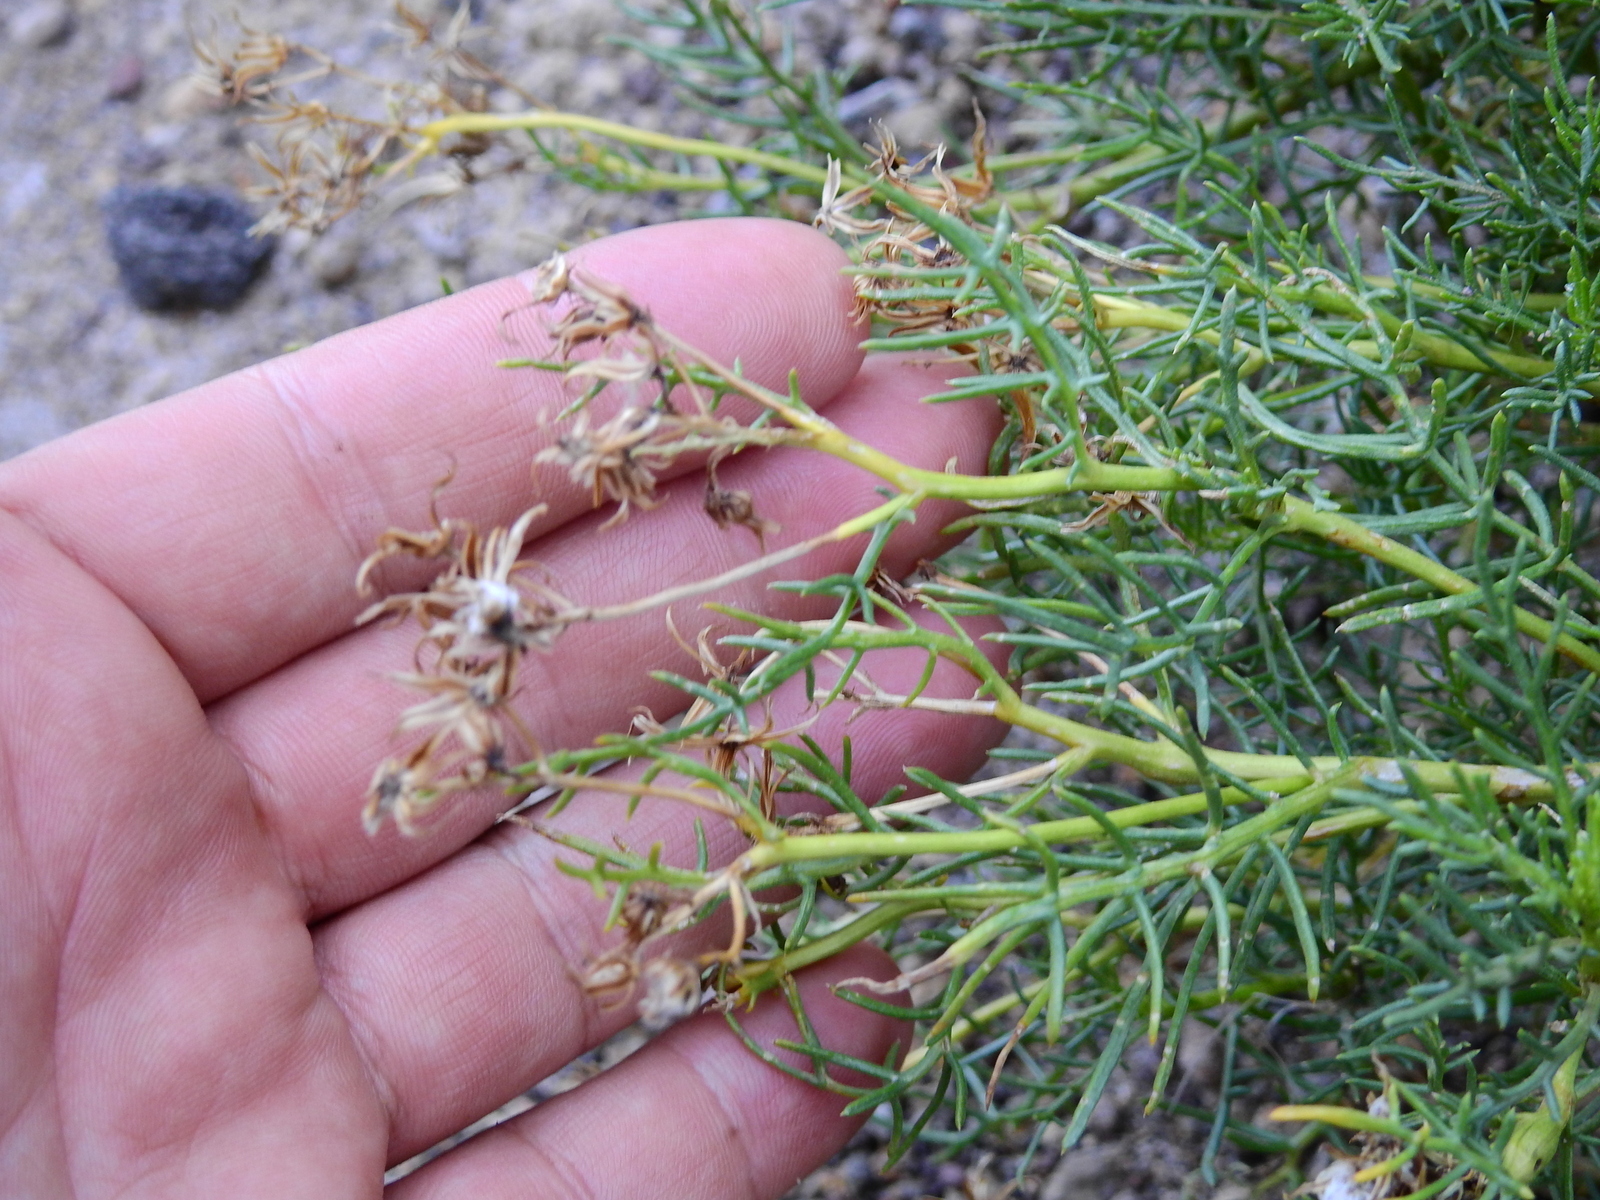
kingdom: Plantae
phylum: Tracheophyta
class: Magnoliopsida
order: Asterales
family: Asteraceae
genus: Senecio
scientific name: Senecio subulatus
